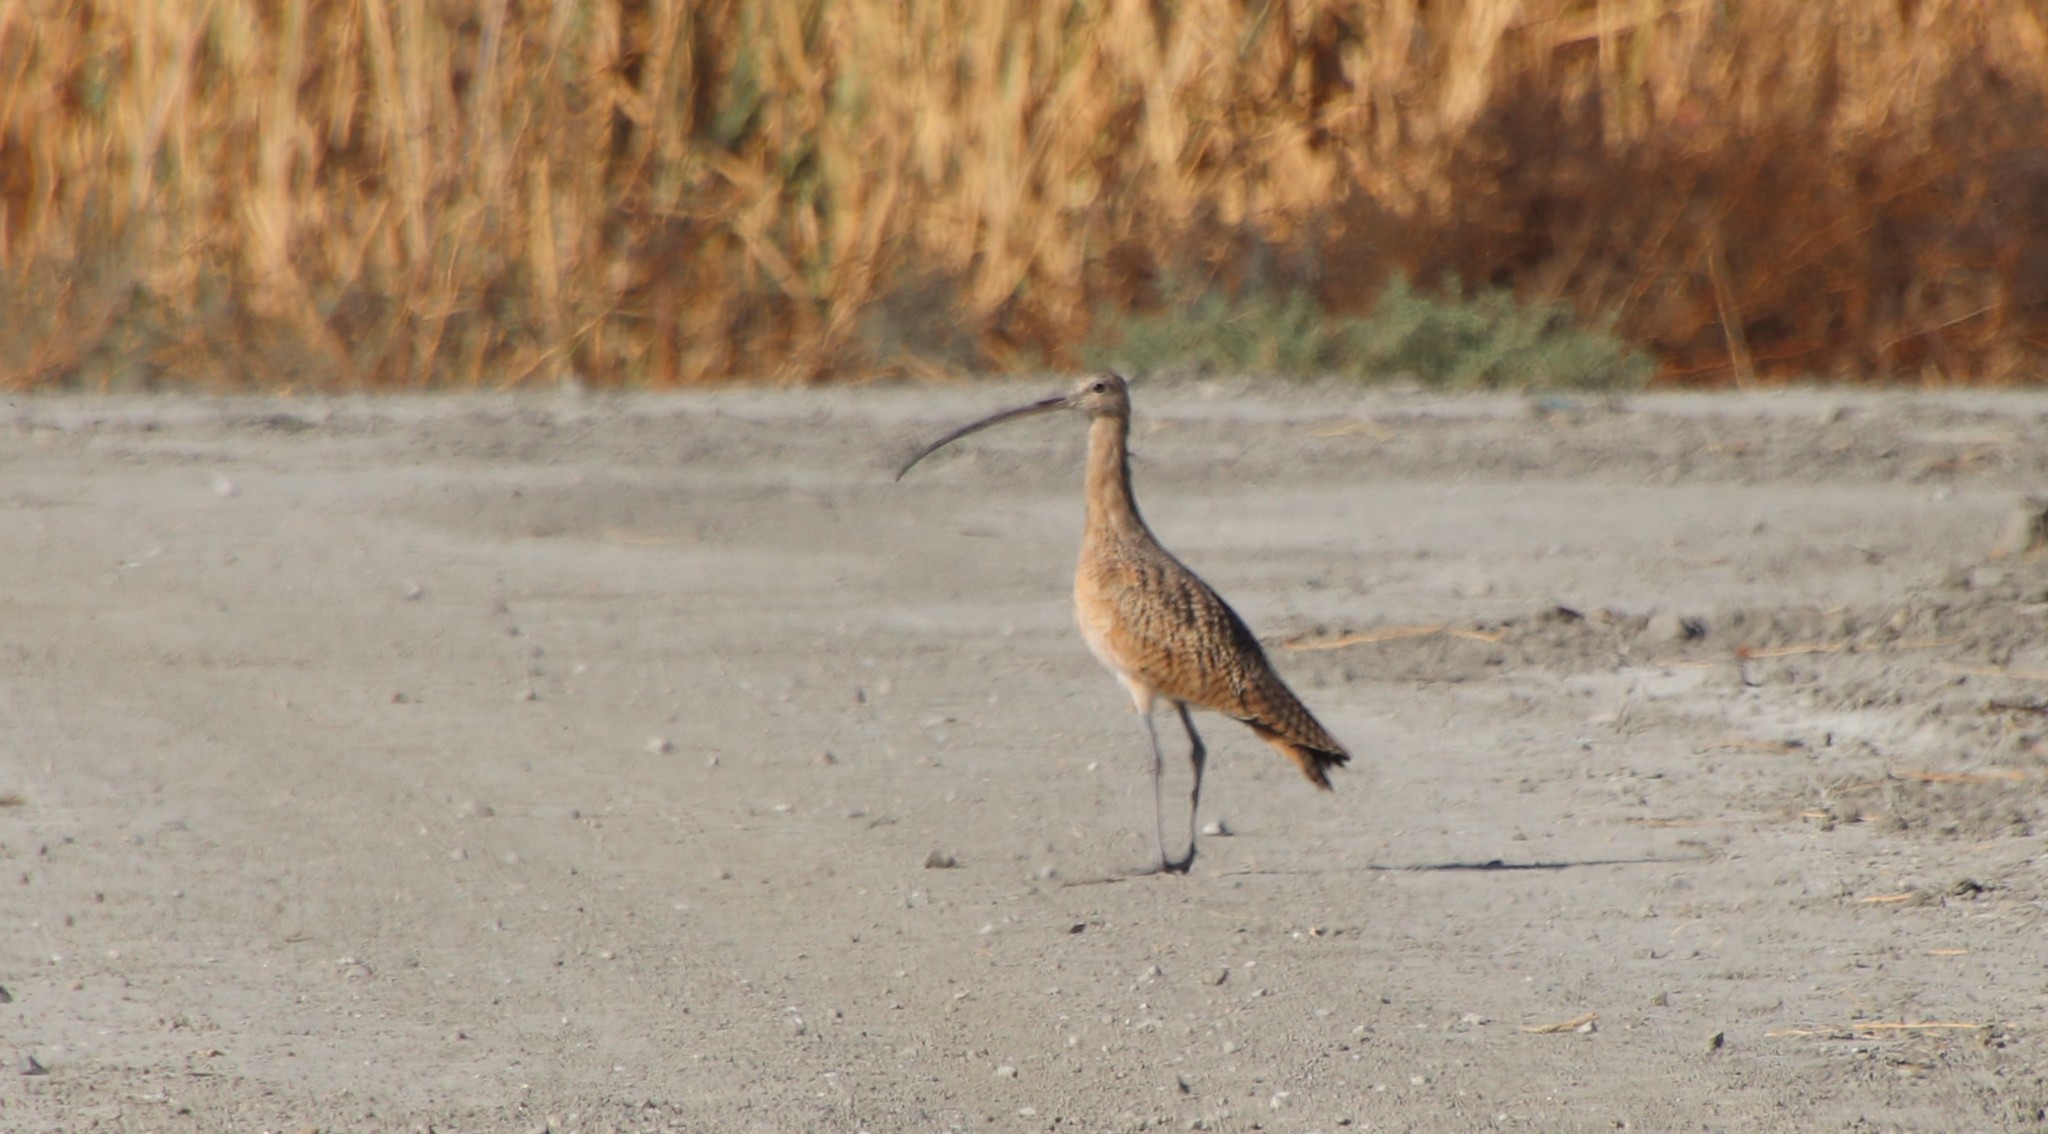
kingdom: Animalia
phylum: Chordata
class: Aves
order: Charadriiformes
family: Scolopacidae
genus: Numenius
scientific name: Numenius americanus
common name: Long-billed curlew
